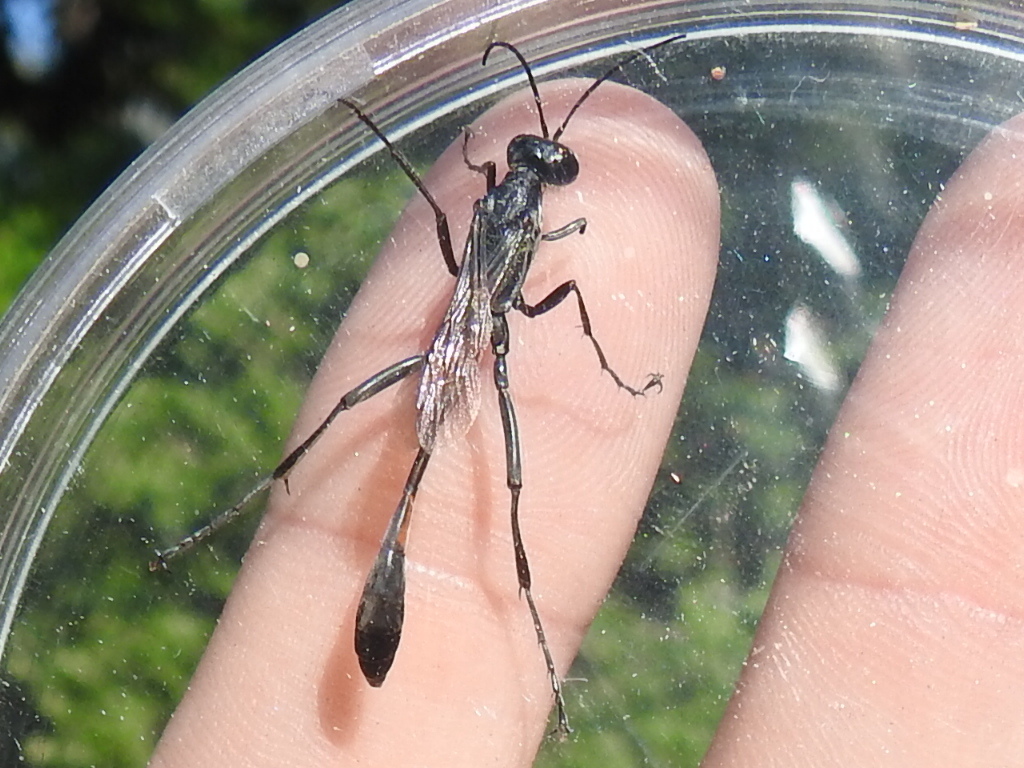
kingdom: Animalia
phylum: Arthropoda
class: Insecta
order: Hymenoptera
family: Sphecidae
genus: Ammophila
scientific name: Ammophila procera
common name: Common thread-waisted wasp
